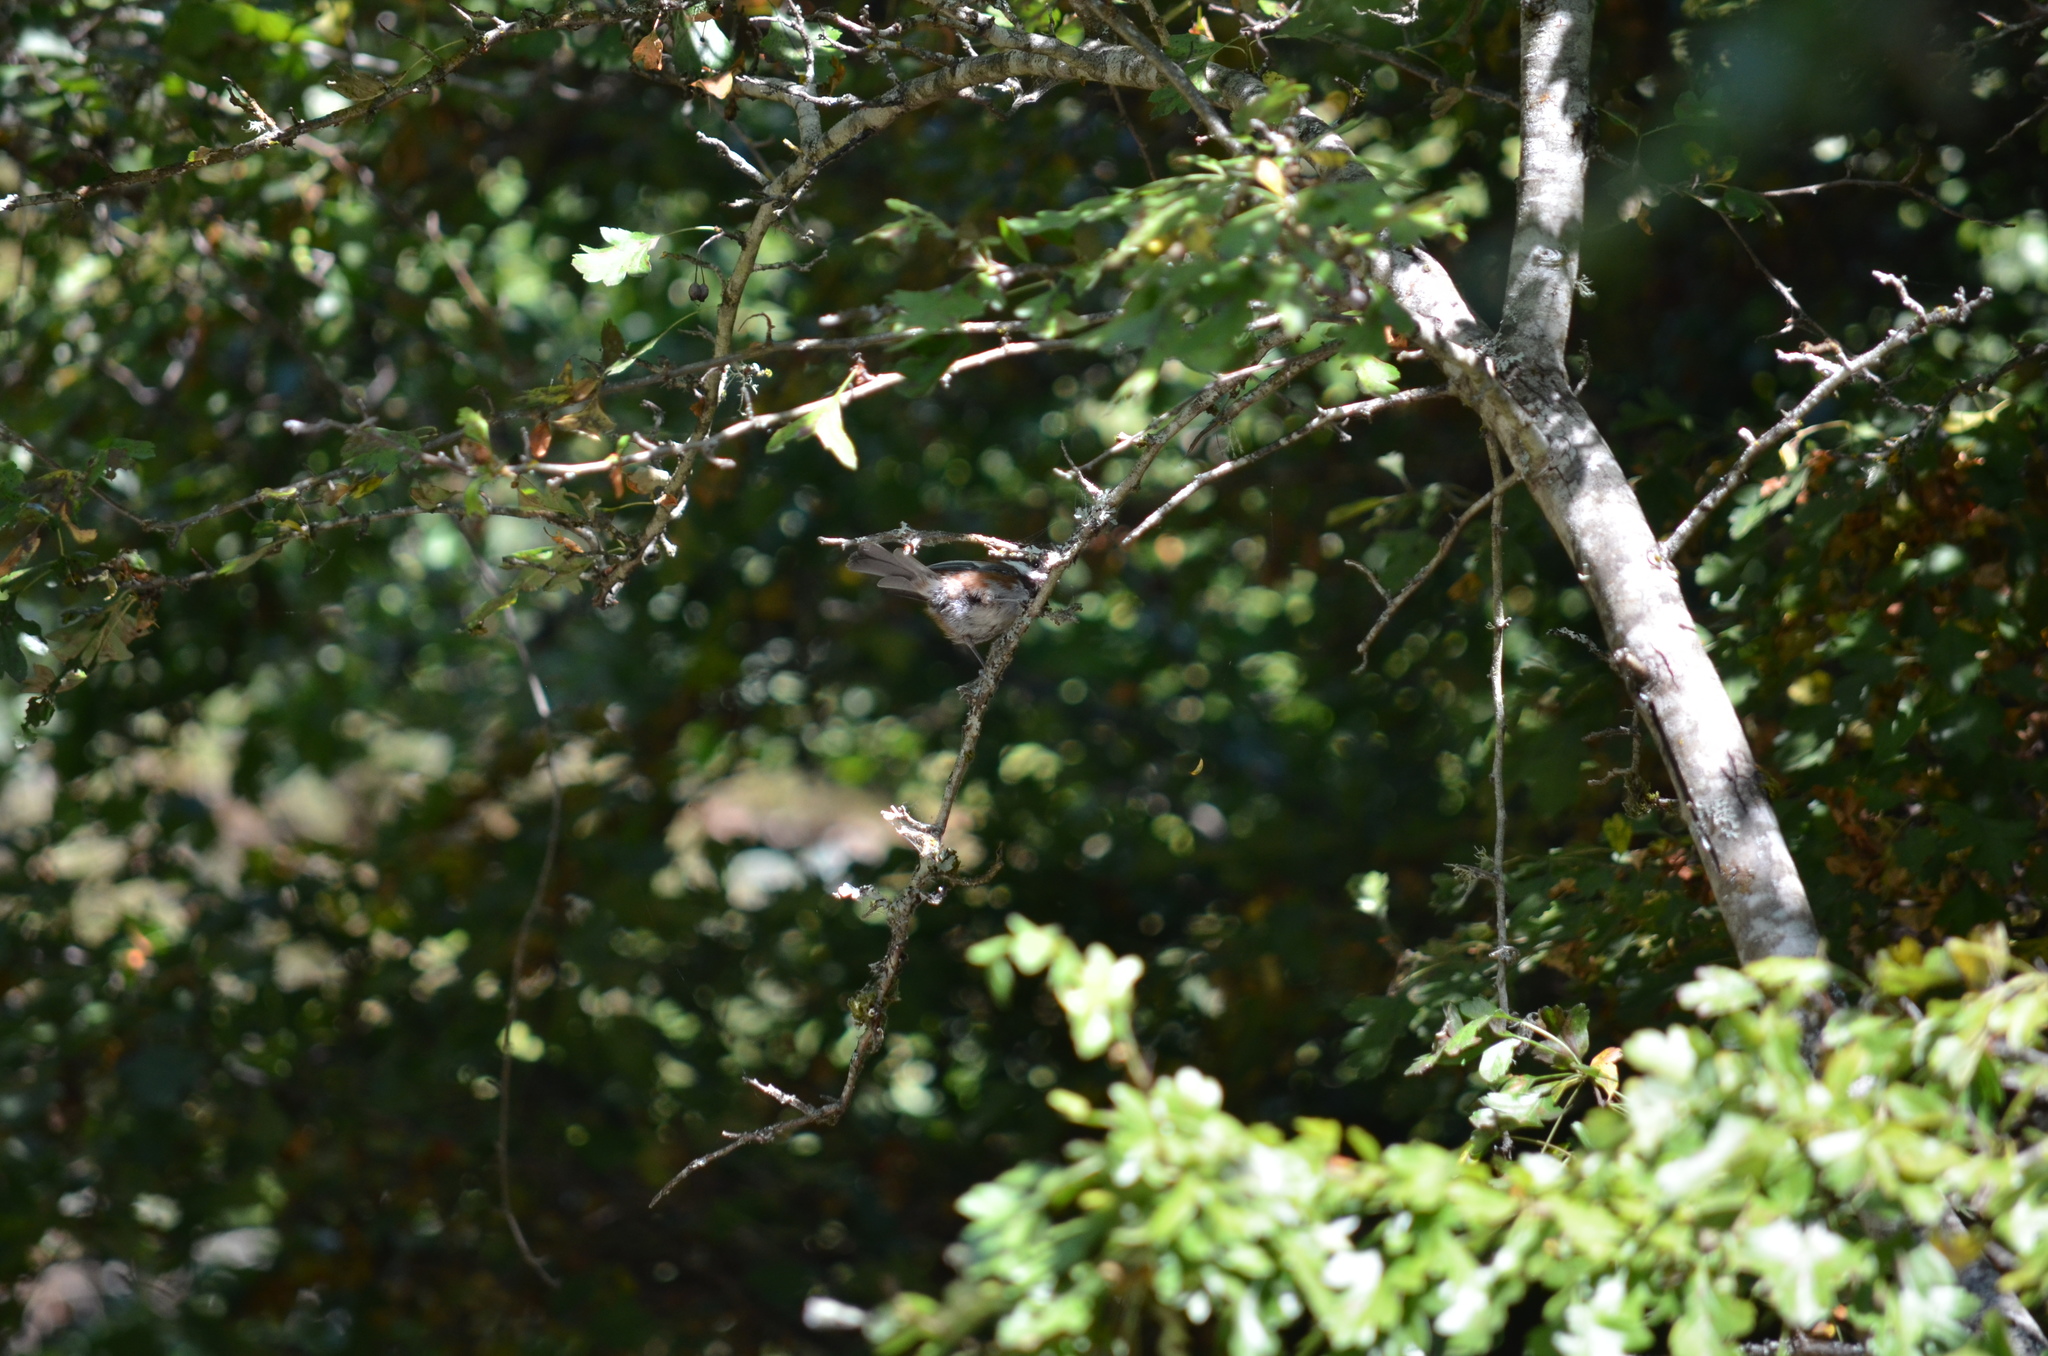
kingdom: Animalia
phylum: Chordata
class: Aves
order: Passeriformes
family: Paridae
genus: Poecile
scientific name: Poecile rufescens
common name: Chestnut-backed chickadee
